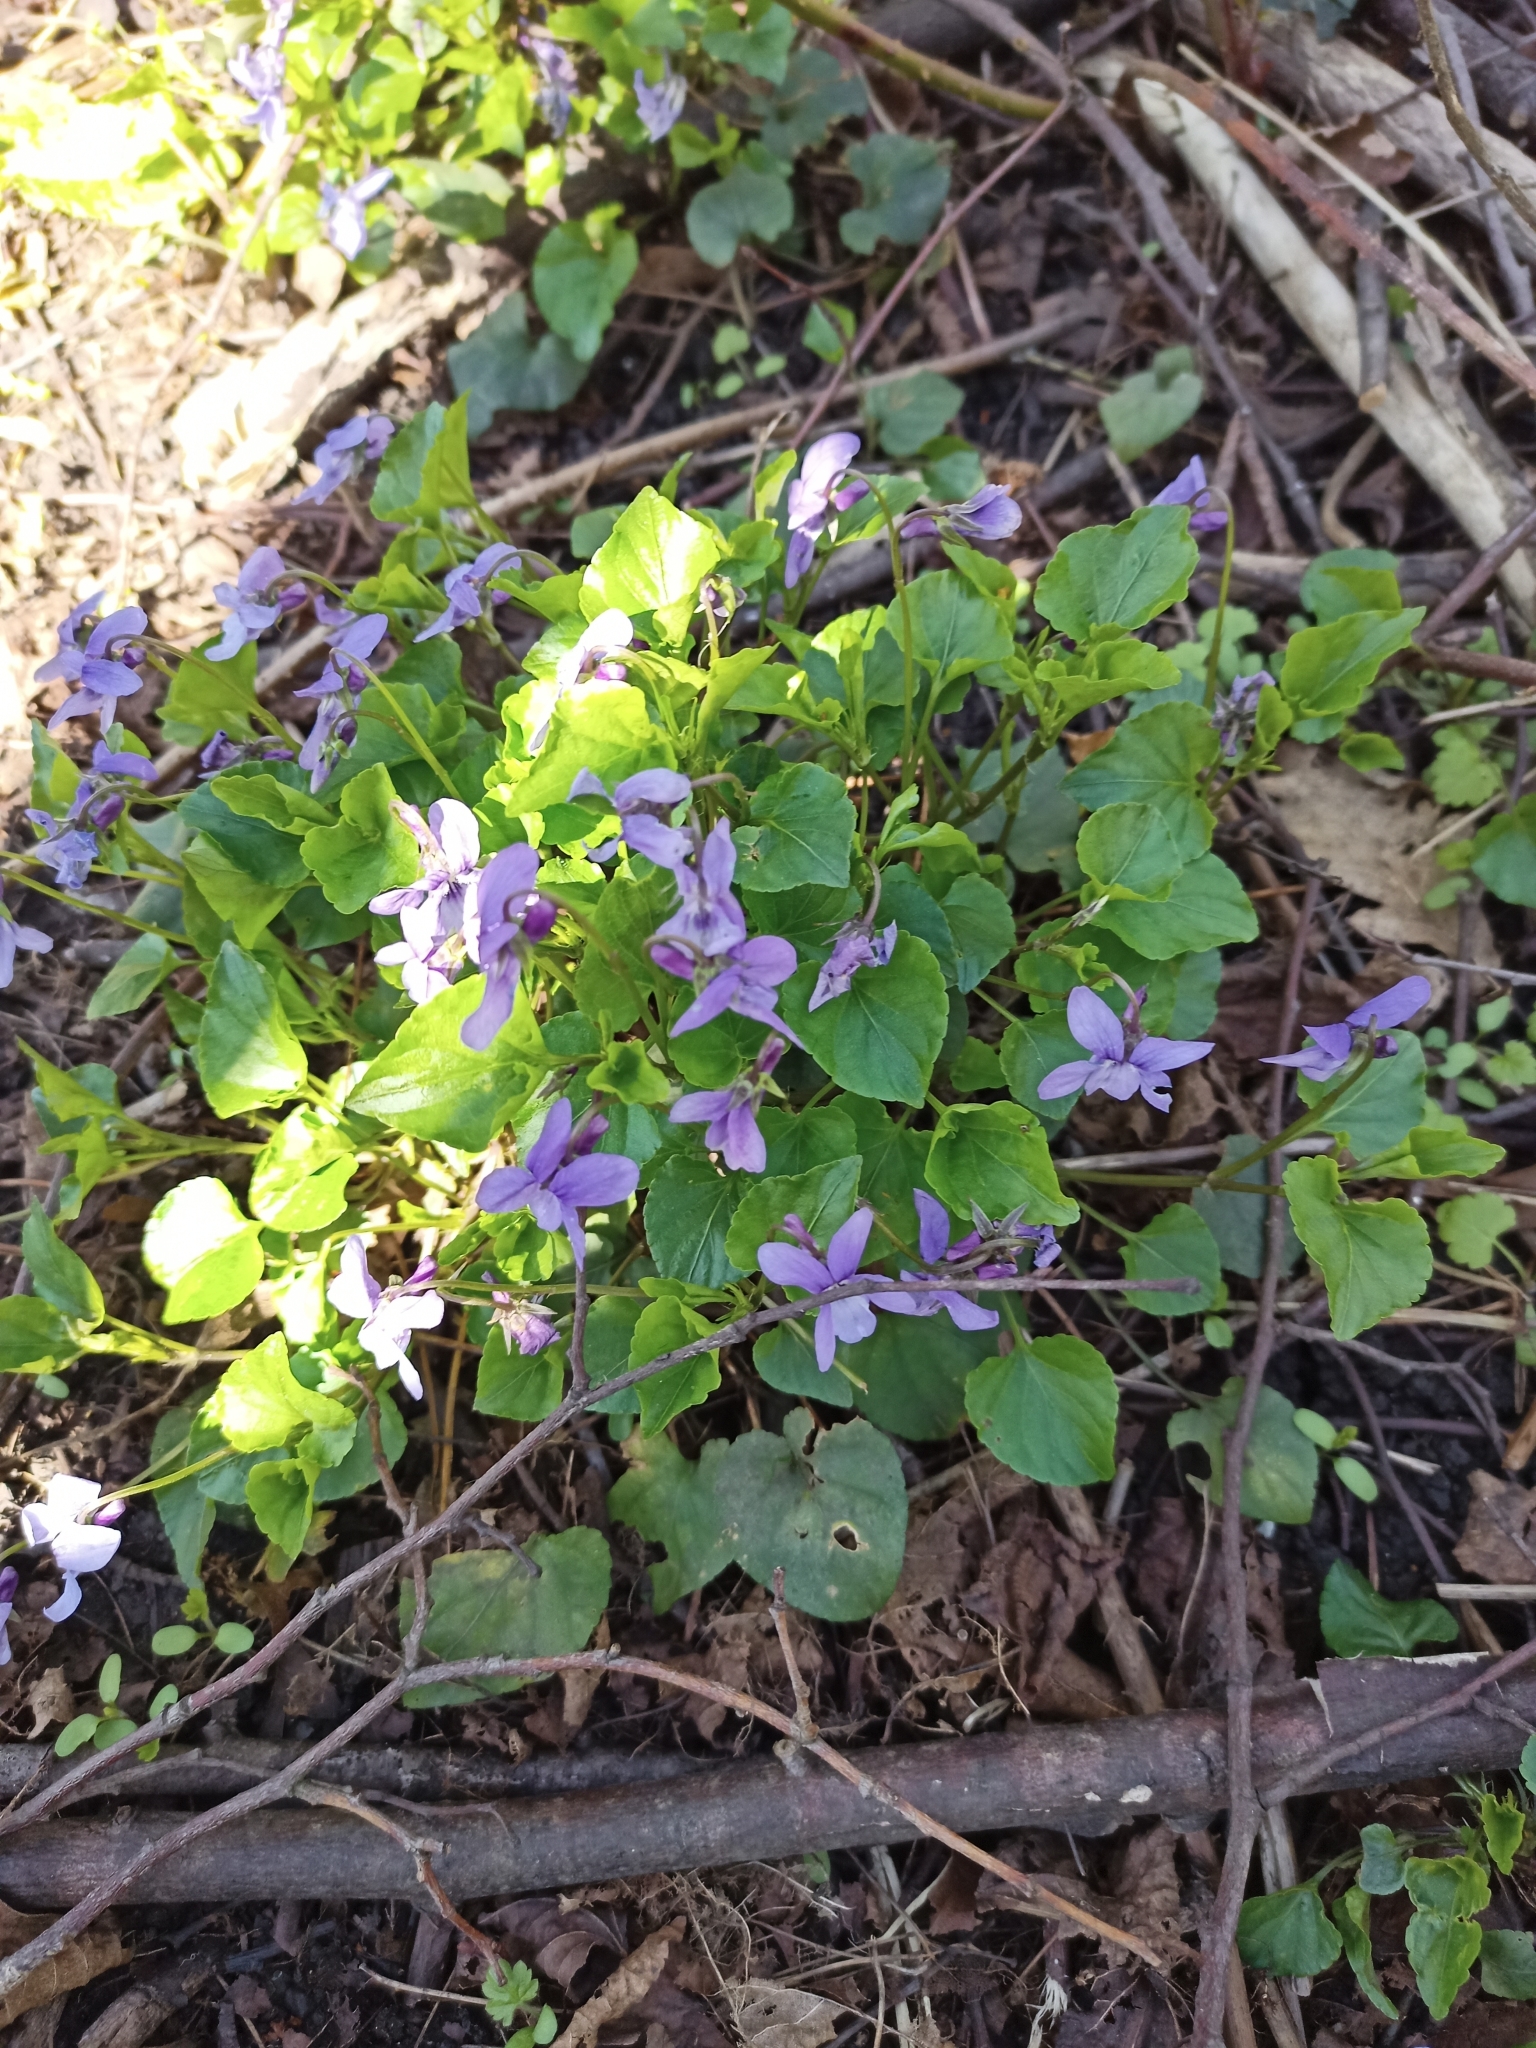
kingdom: Plantae
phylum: Tracheophyta
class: Magnoliopsida
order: Malpighiales
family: Violaceae
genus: Viola
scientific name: Viola reichenbachiana
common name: Early dog-violet
